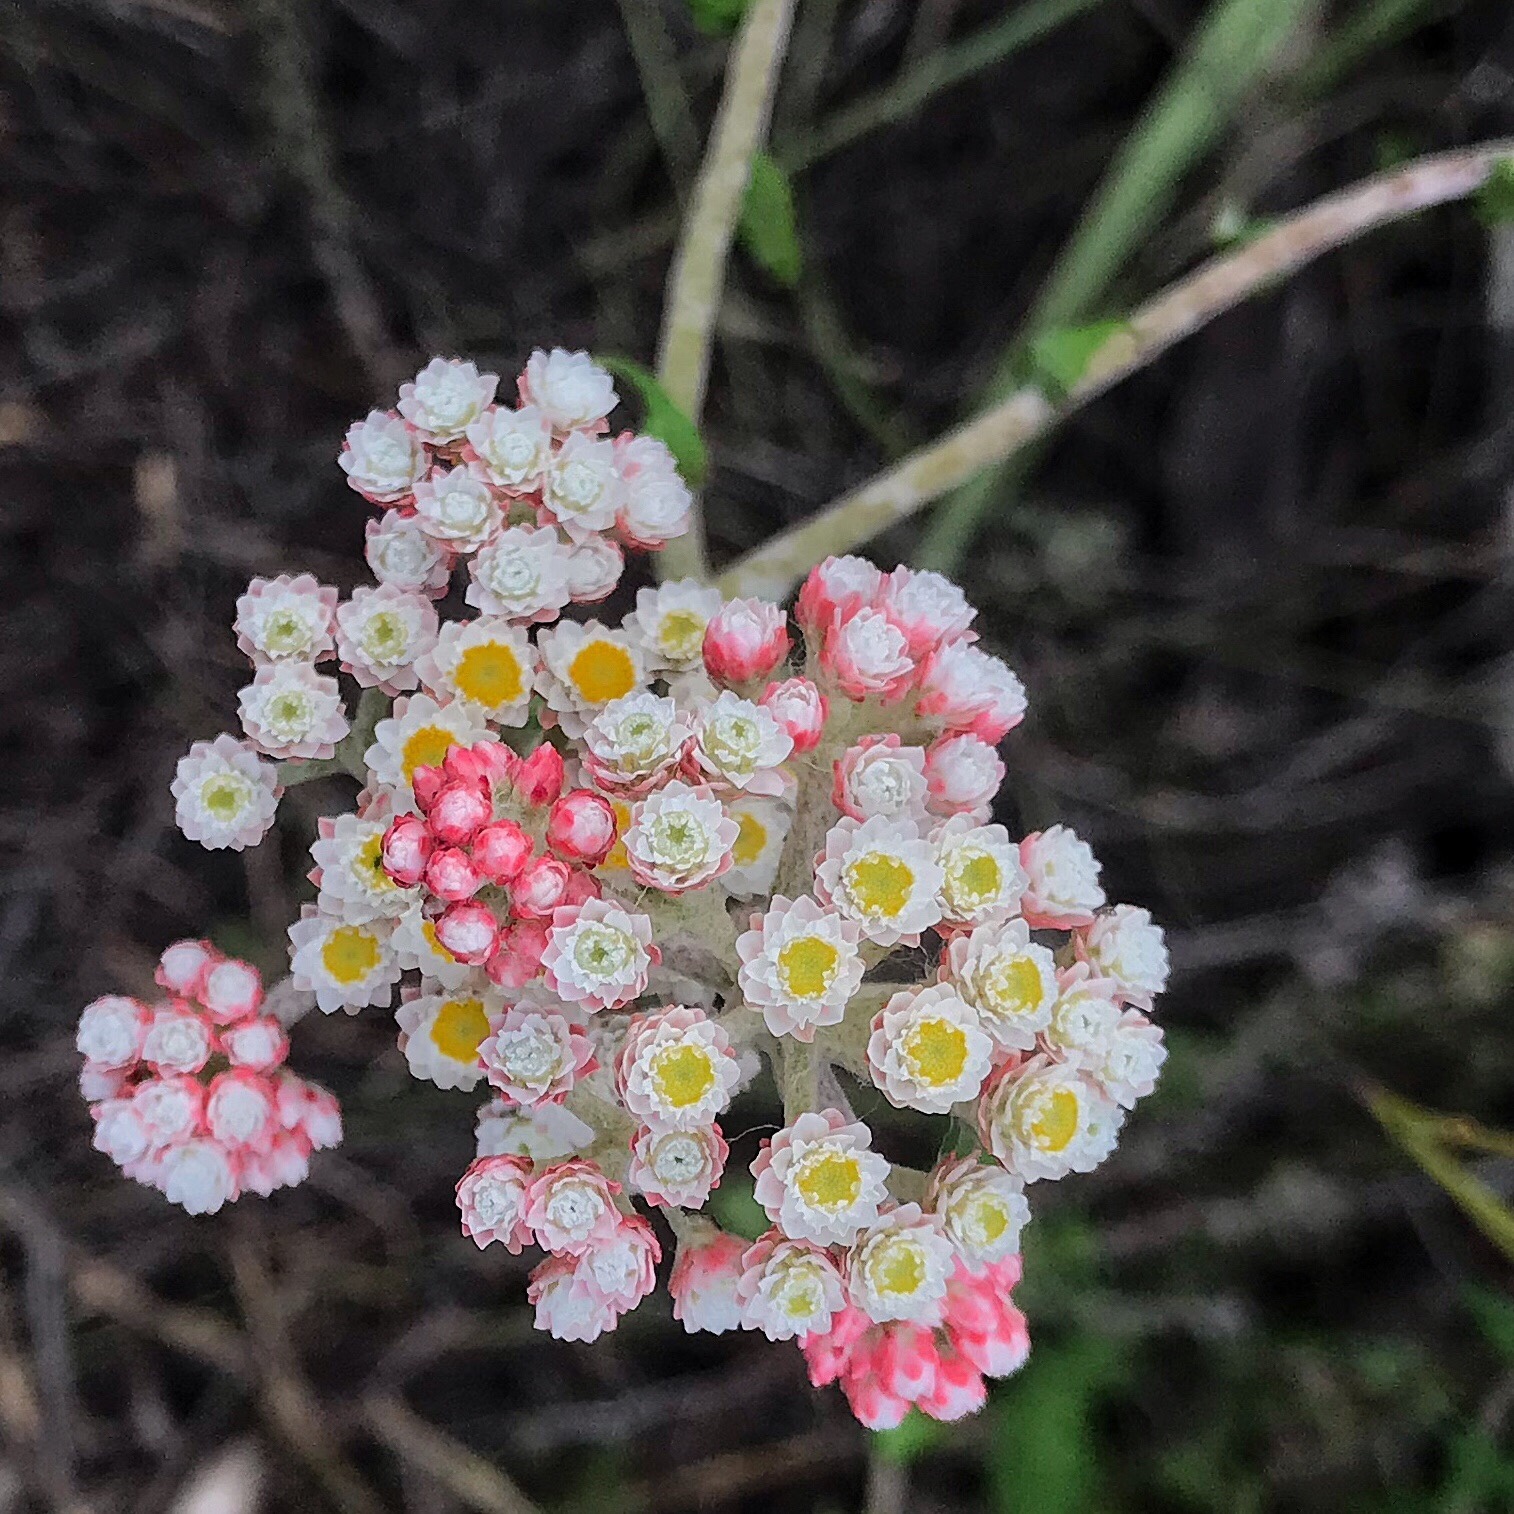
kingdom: Plantae
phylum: Tracheophyta
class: Magnoliopsida
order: Asterales
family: Asteraceae
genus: Helichrysum
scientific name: Helichrysum felinum
